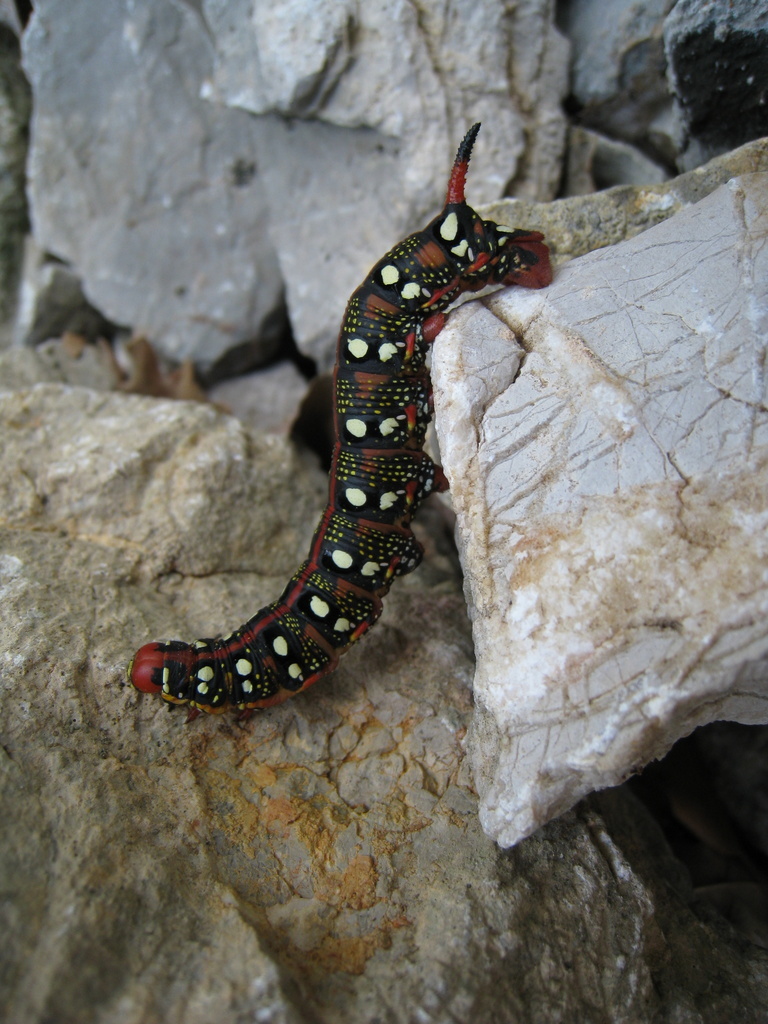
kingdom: Animalia
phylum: Arthropoda
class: Insecta
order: Lepidoptera
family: Sphingidae
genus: Hyles
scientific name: Hyles euphorbiae
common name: Spurge hawk-moth
